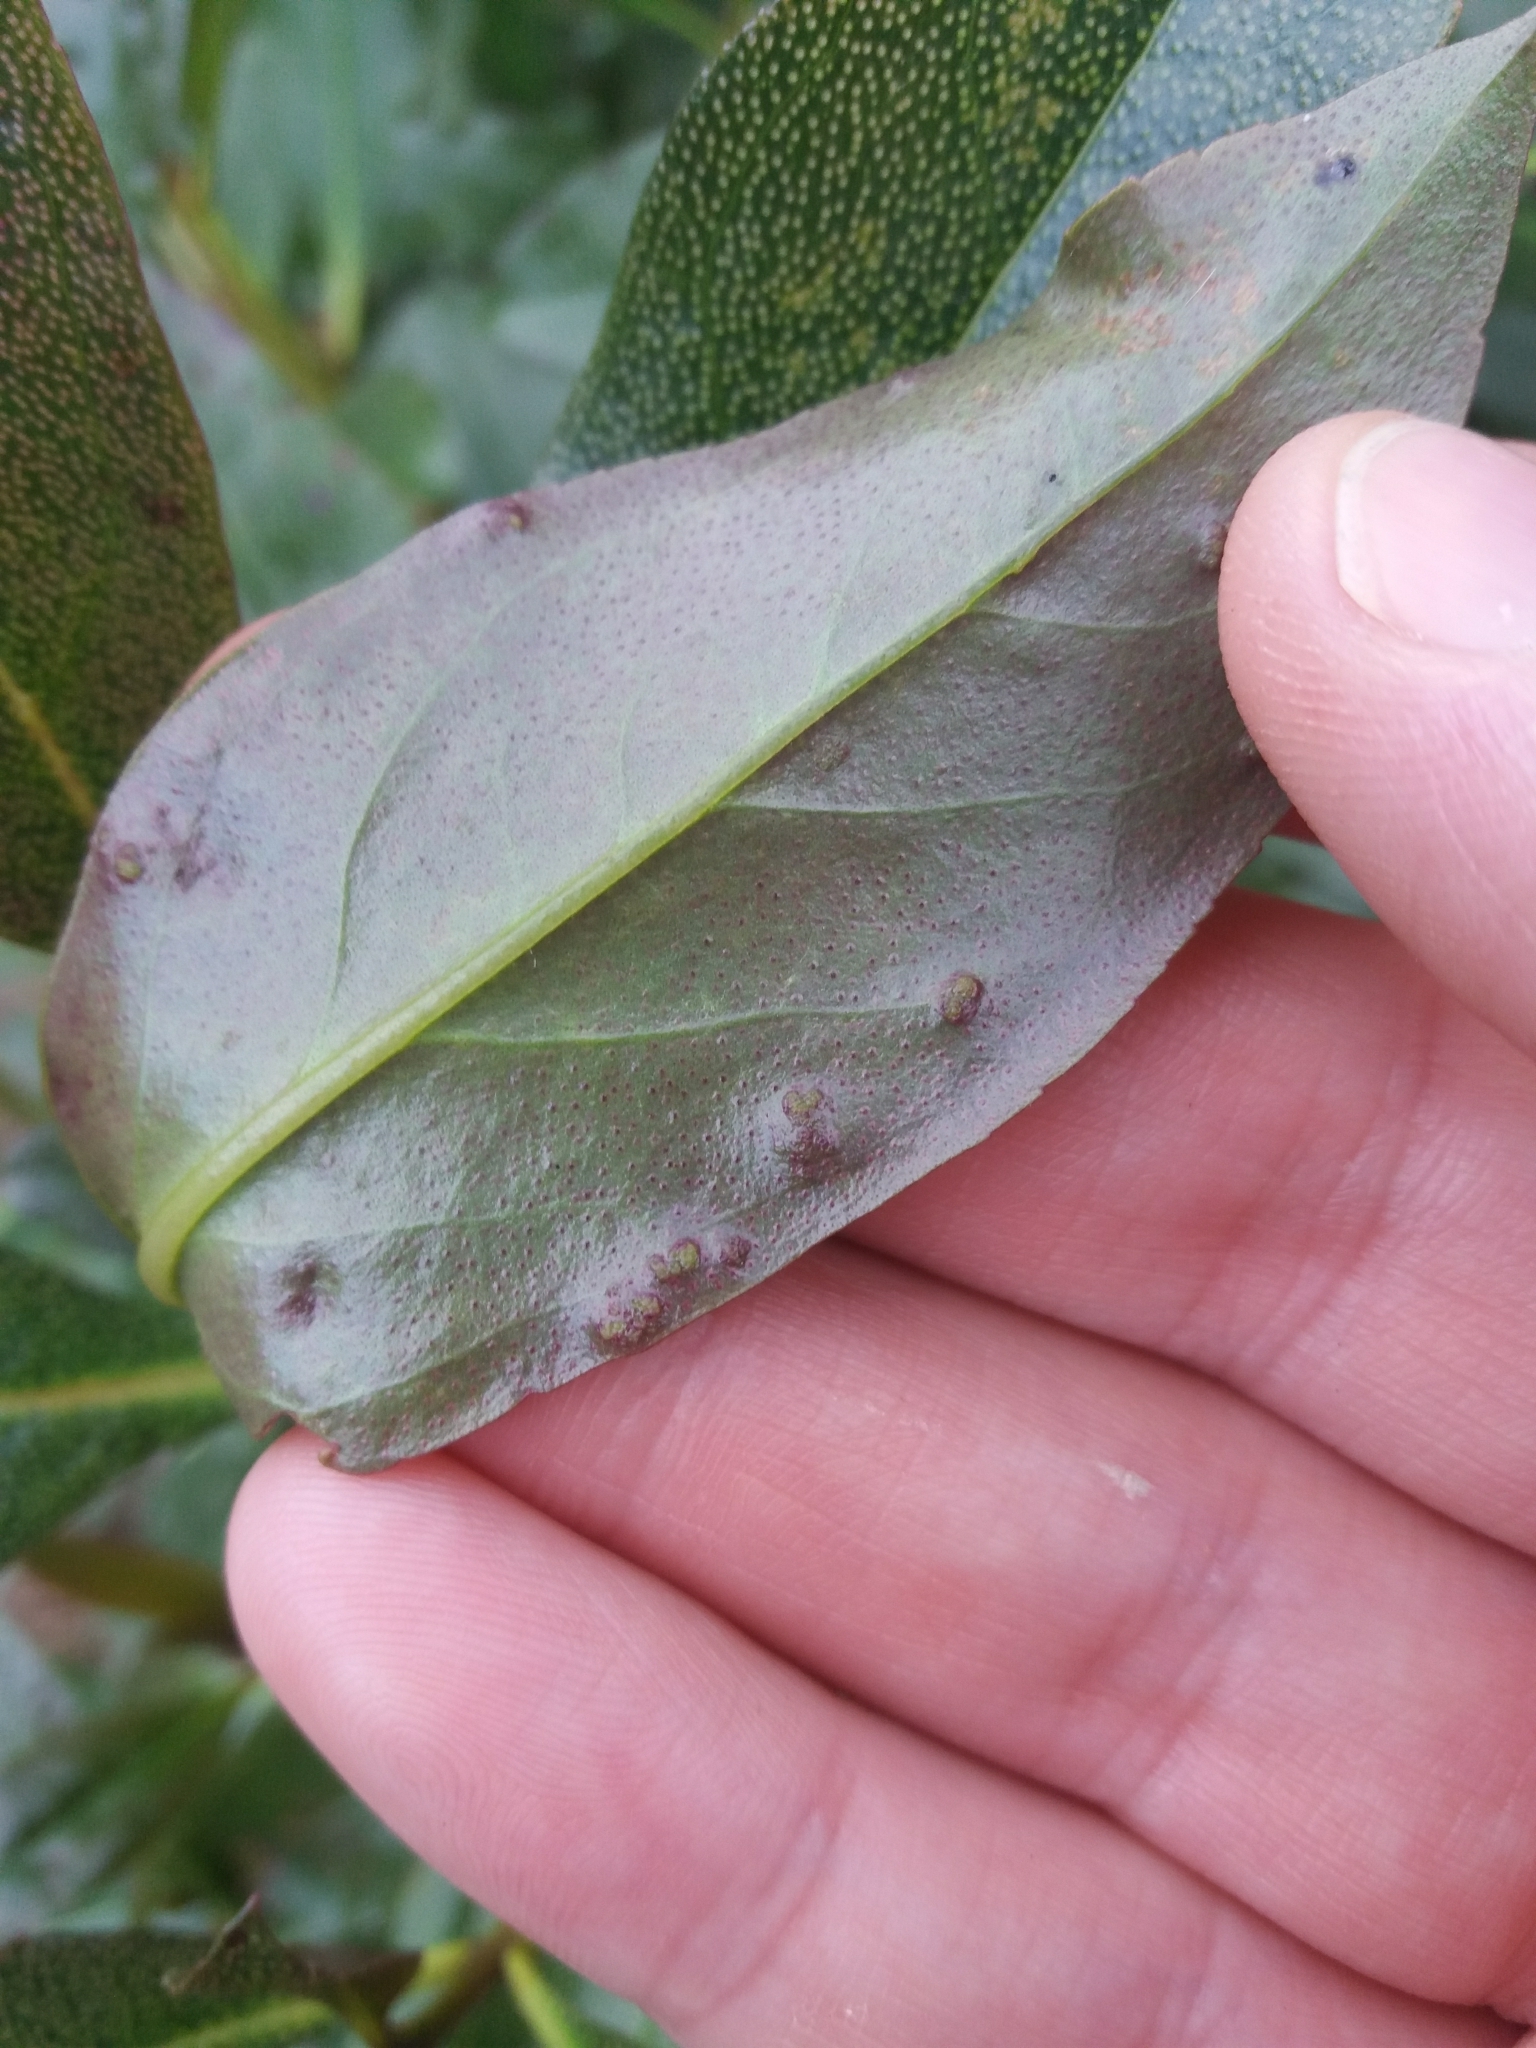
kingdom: Animalia
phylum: Arthropoda
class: Arachnida
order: Trombidiformes
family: Eriophyidae
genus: Aceria
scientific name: Aceria healyi
